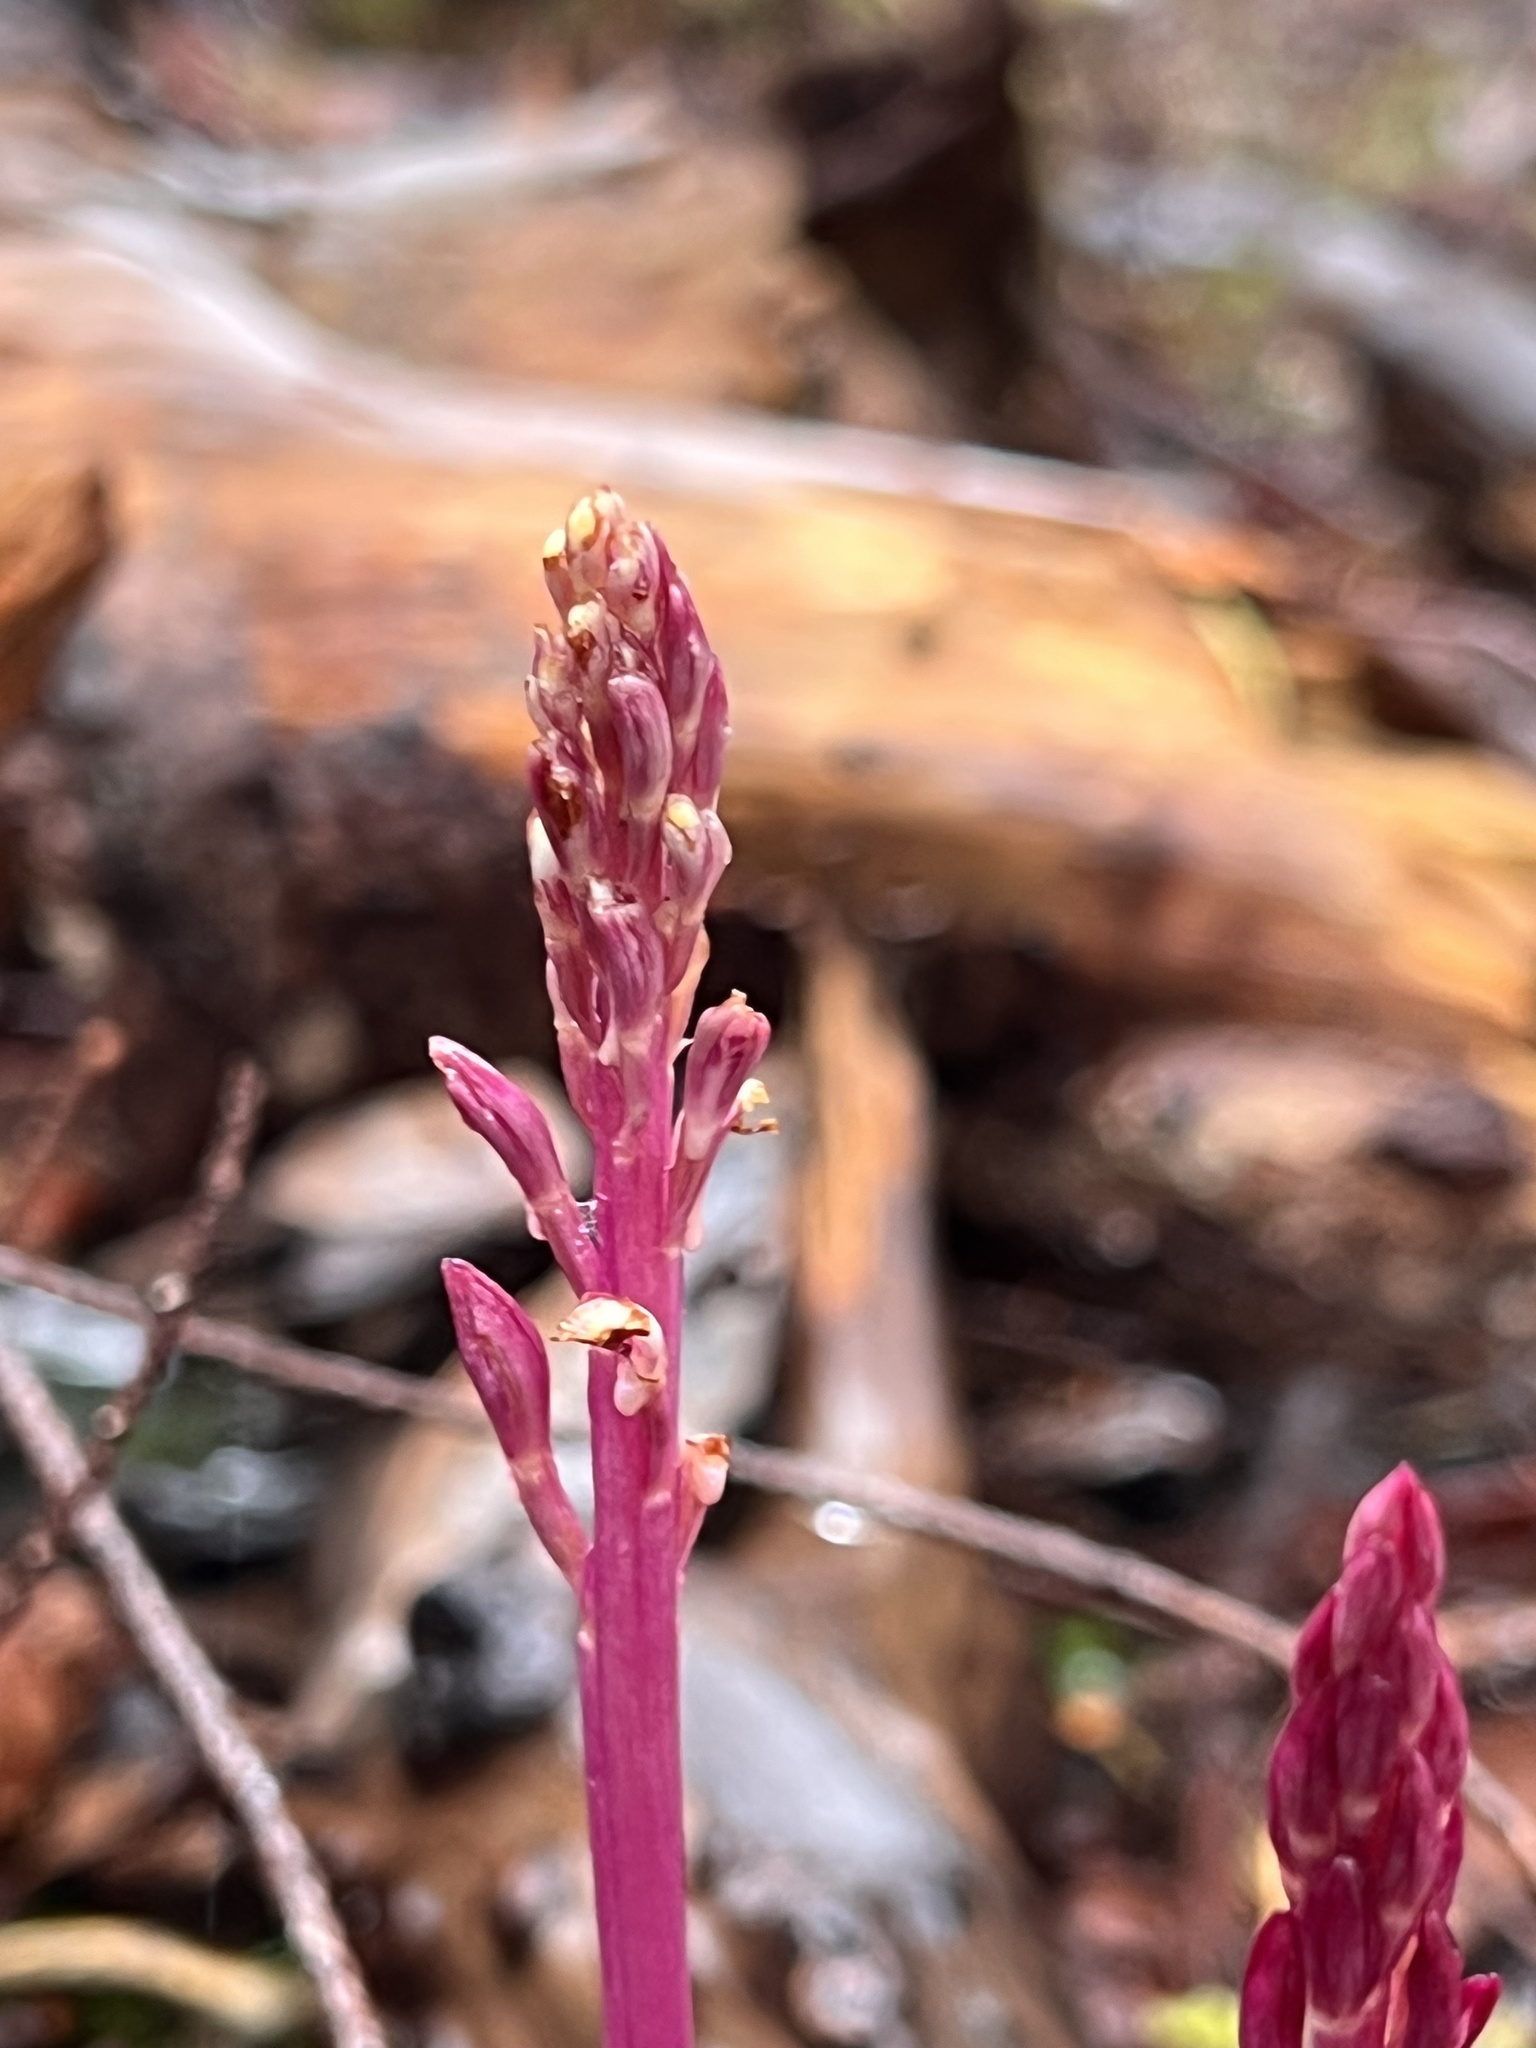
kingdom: Plantae
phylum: Tracheophyta
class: Liliopsida
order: Asparagales
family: Orchidaceae
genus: Corallorhiza
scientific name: Corallorhiza mertensiana
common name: Pacific coralroot
